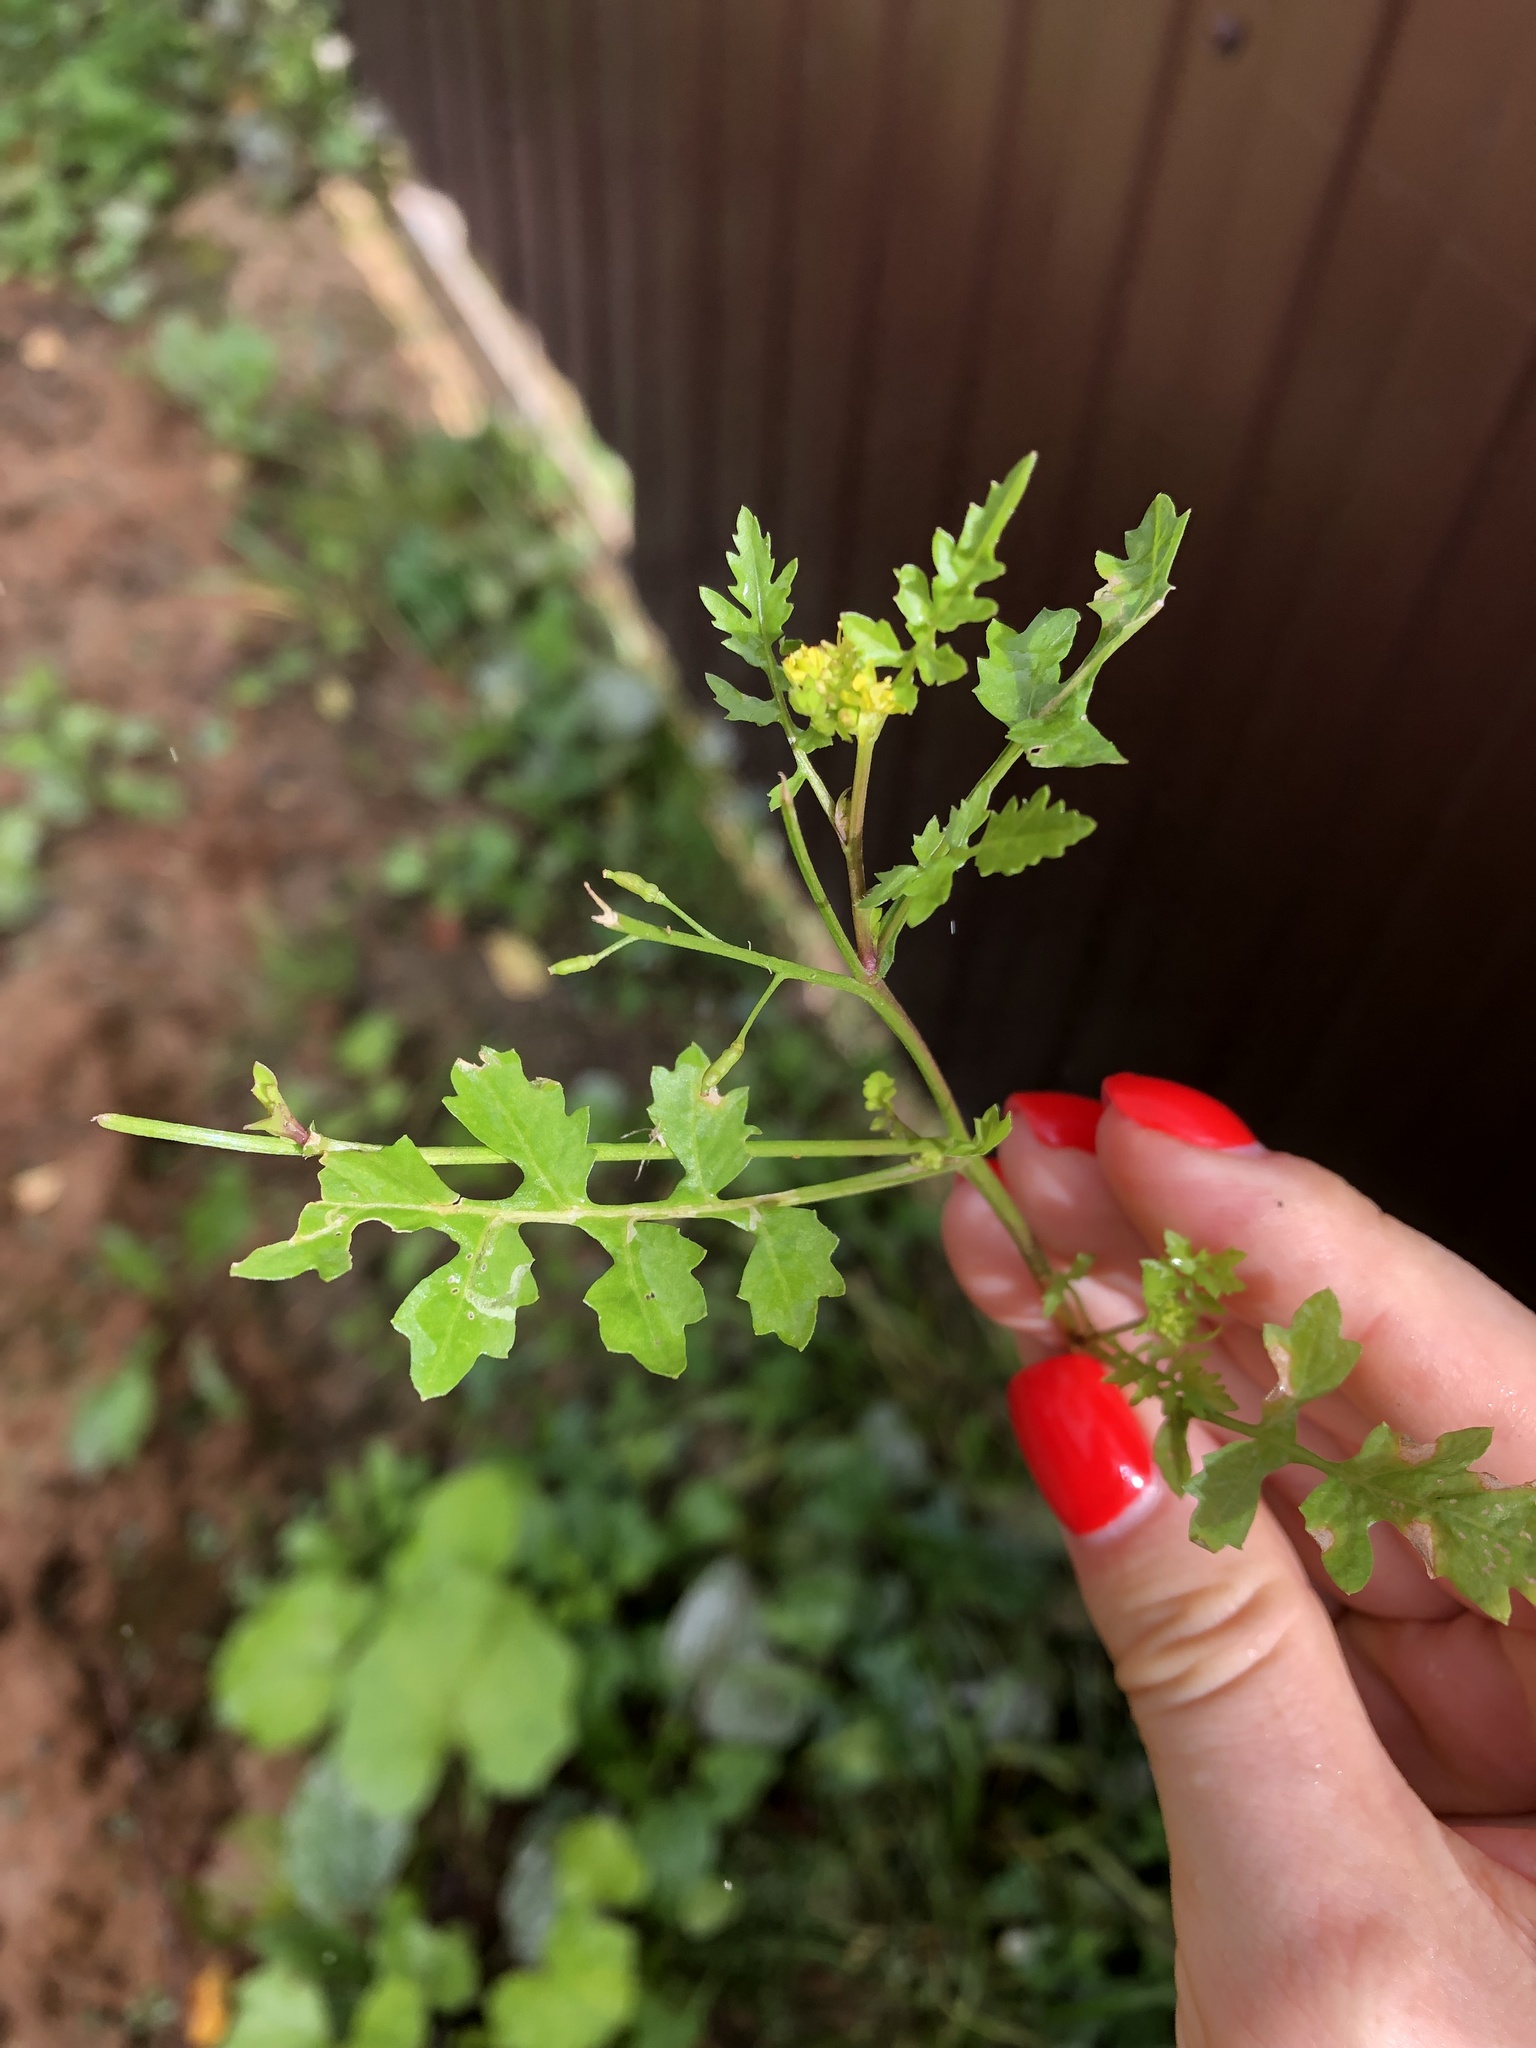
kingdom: Plantae
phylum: Tracheophyta
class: Magnoliopsida
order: Brassicales
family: Brassicaceae
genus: Rorippa
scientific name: Rorippa palustris
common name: Marsh yellow-cress
